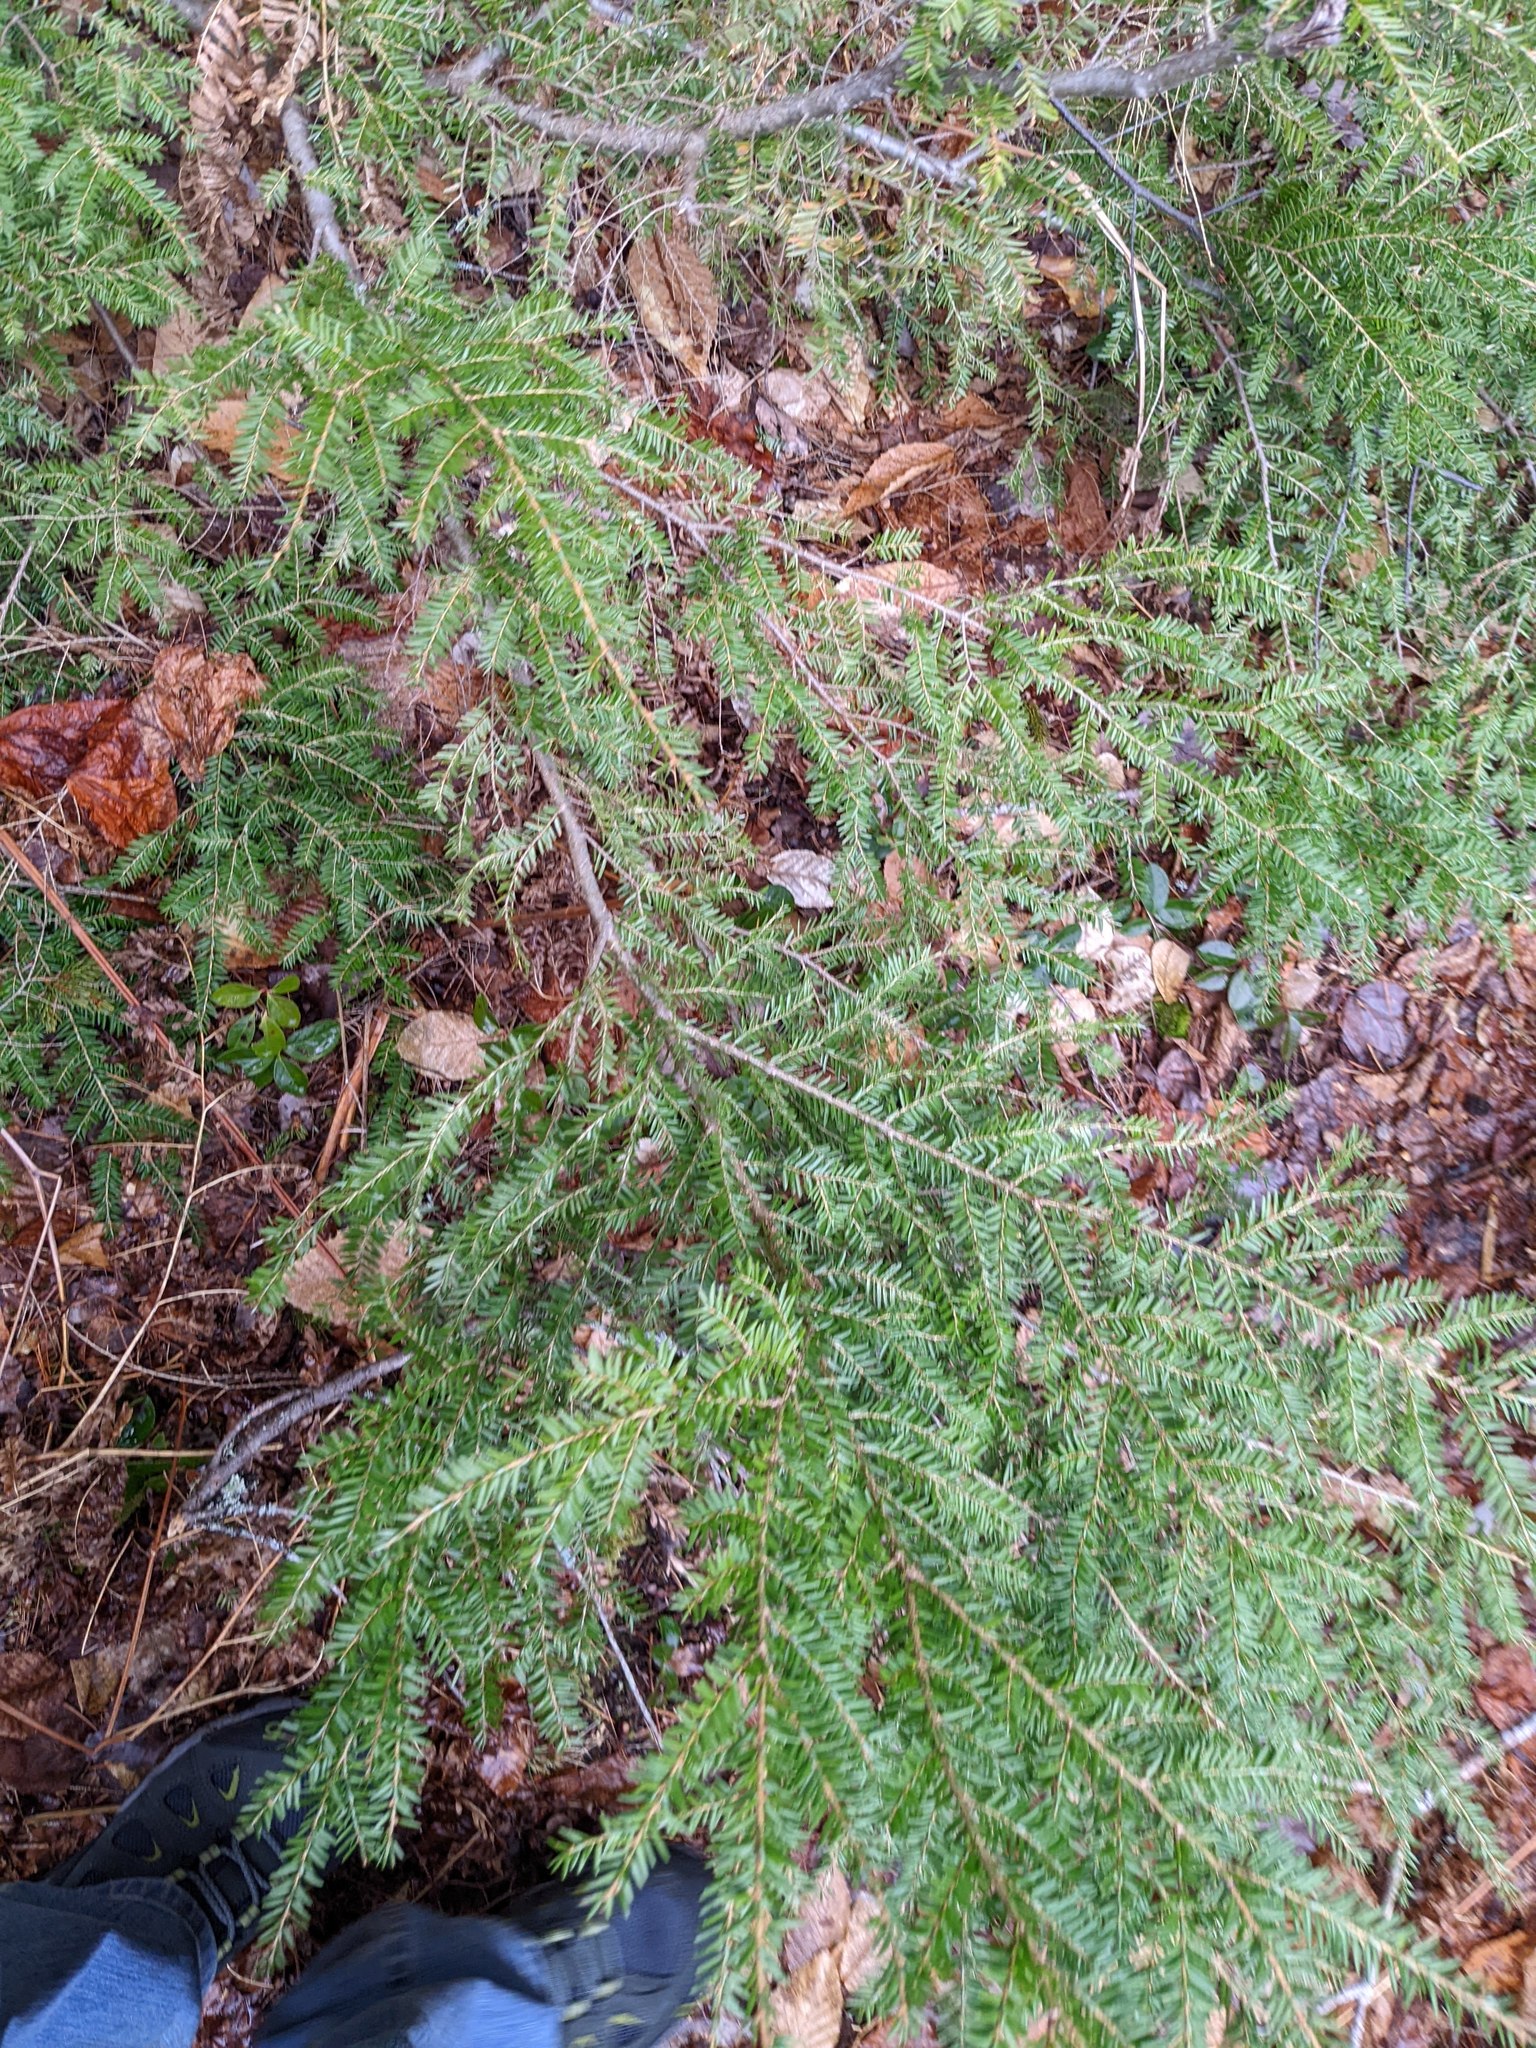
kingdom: Plantae
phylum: Tracheophyta
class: Pinopsida
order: Pinales
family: Pinaceae
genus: Tsuga
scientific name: Tsuga canadensis
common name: Eastern hemlock
